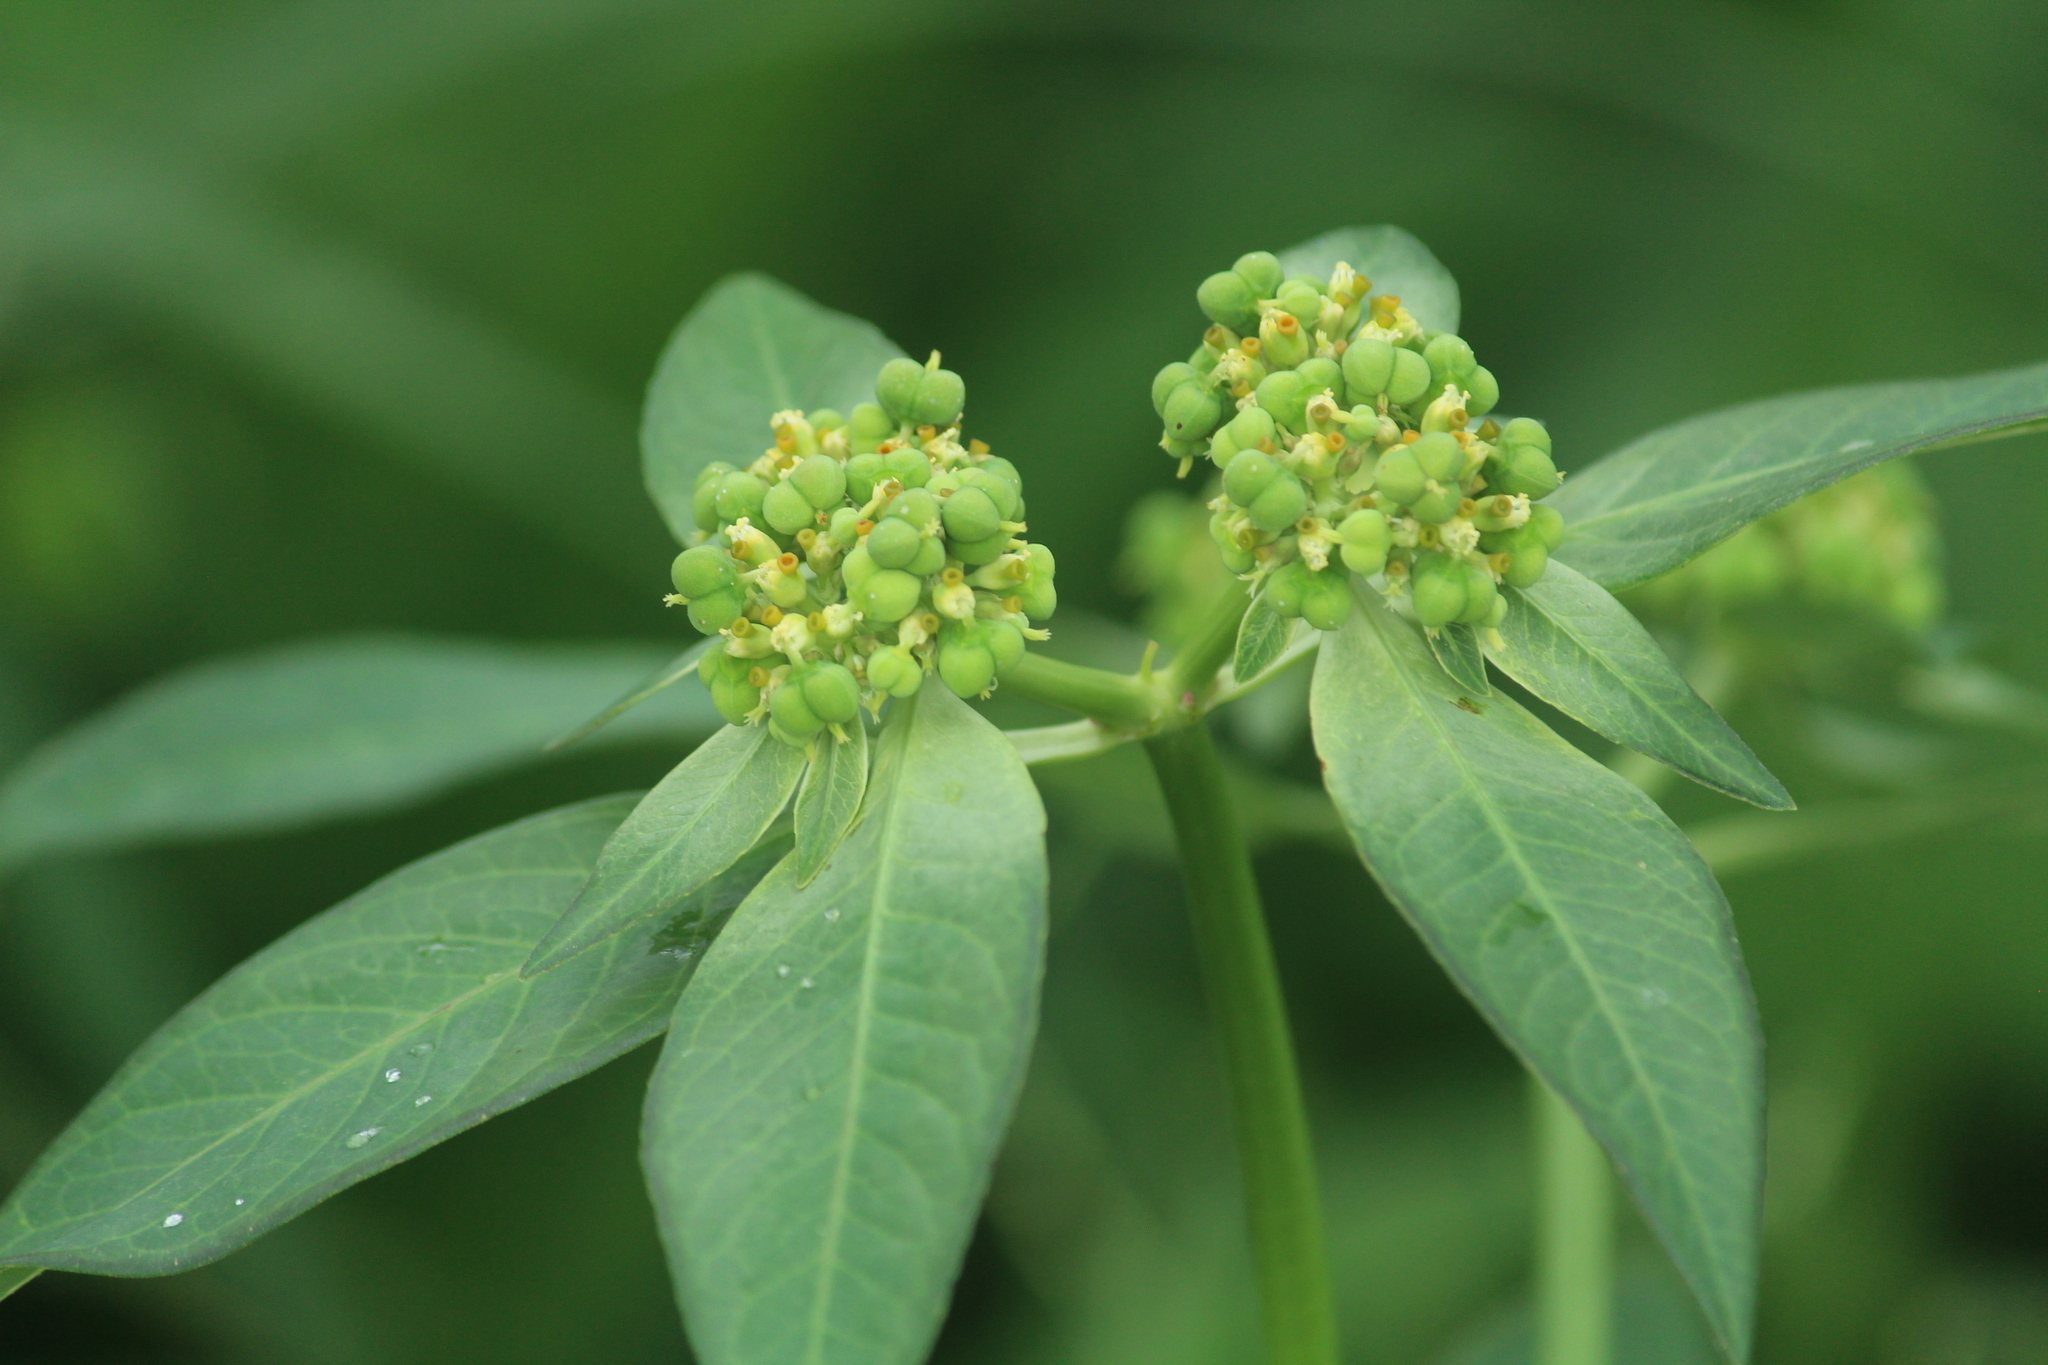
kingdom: Plantae
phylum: Tracheophyta
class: Magnoliopsida
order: Malpighiales
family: Euphorbiaceae
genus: Euphorbia
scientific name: Euphorbia heterophylla
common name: Mexican fireplant
